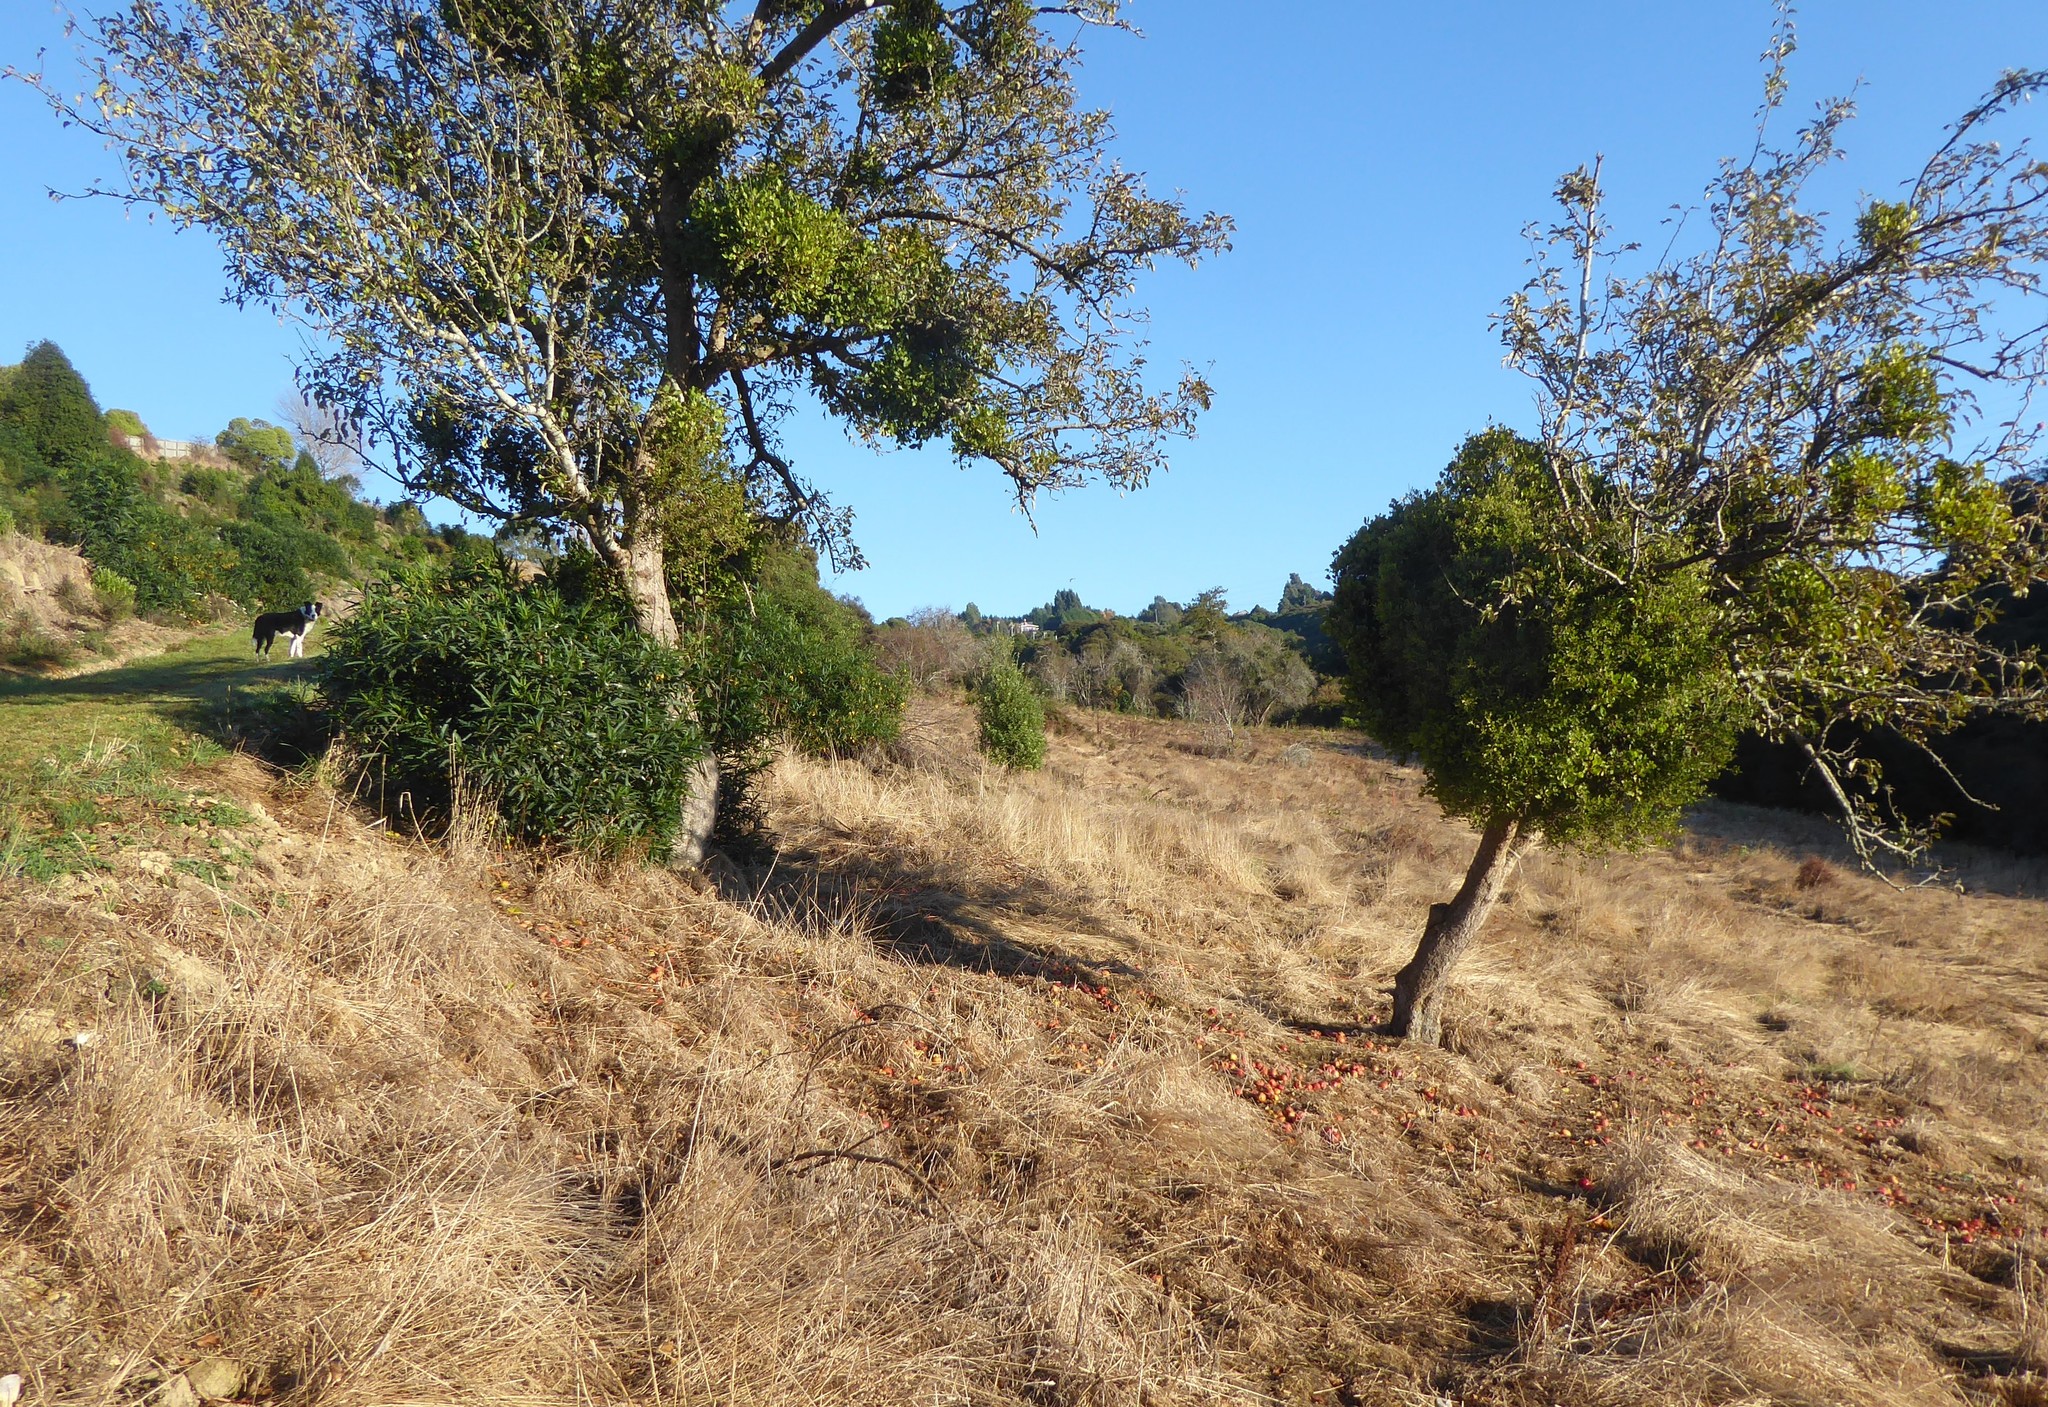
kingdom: Plantae
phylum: Tracheophyta
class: Magnoliopsida
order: Santalales
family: Loranthaceae
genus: Tupeia
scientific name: Tupeia antarctica
